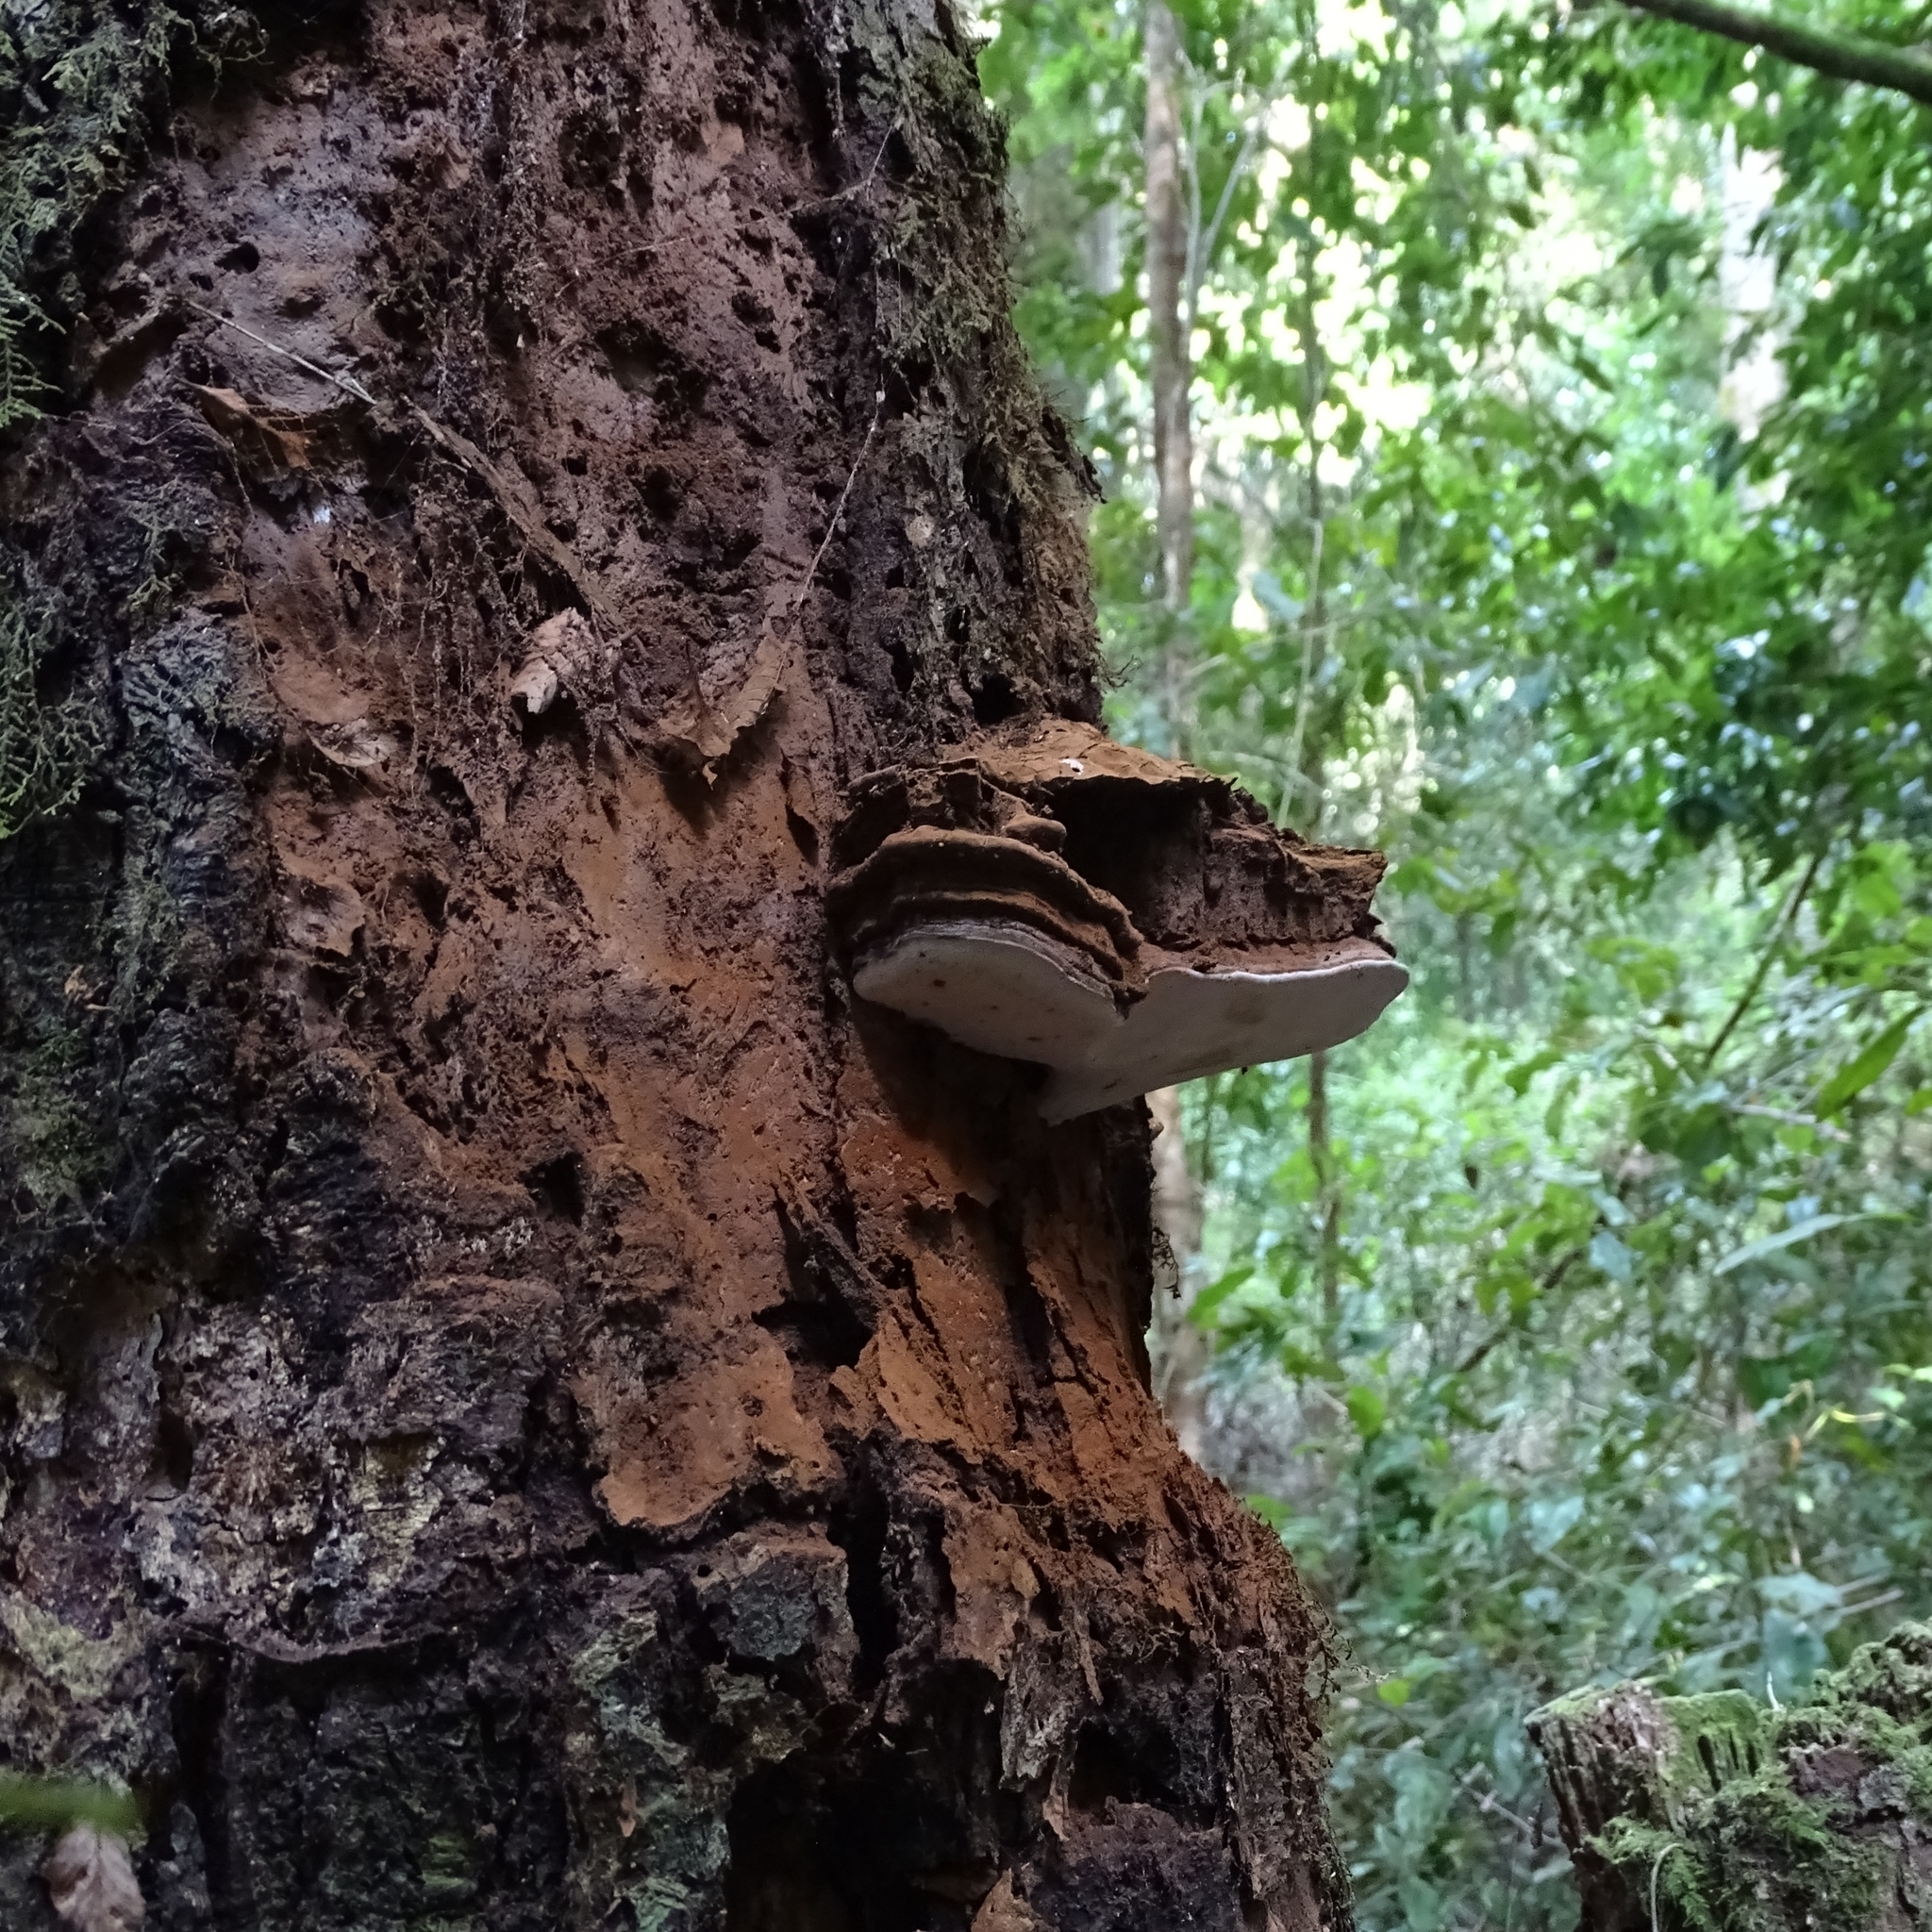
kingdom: Fungi
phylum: Basidiomycota
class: Agaricomycetes
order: Polyporales
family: Polyporaceae
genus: Ganoderma
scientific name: Ganoderma australe
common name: Southern bracket
